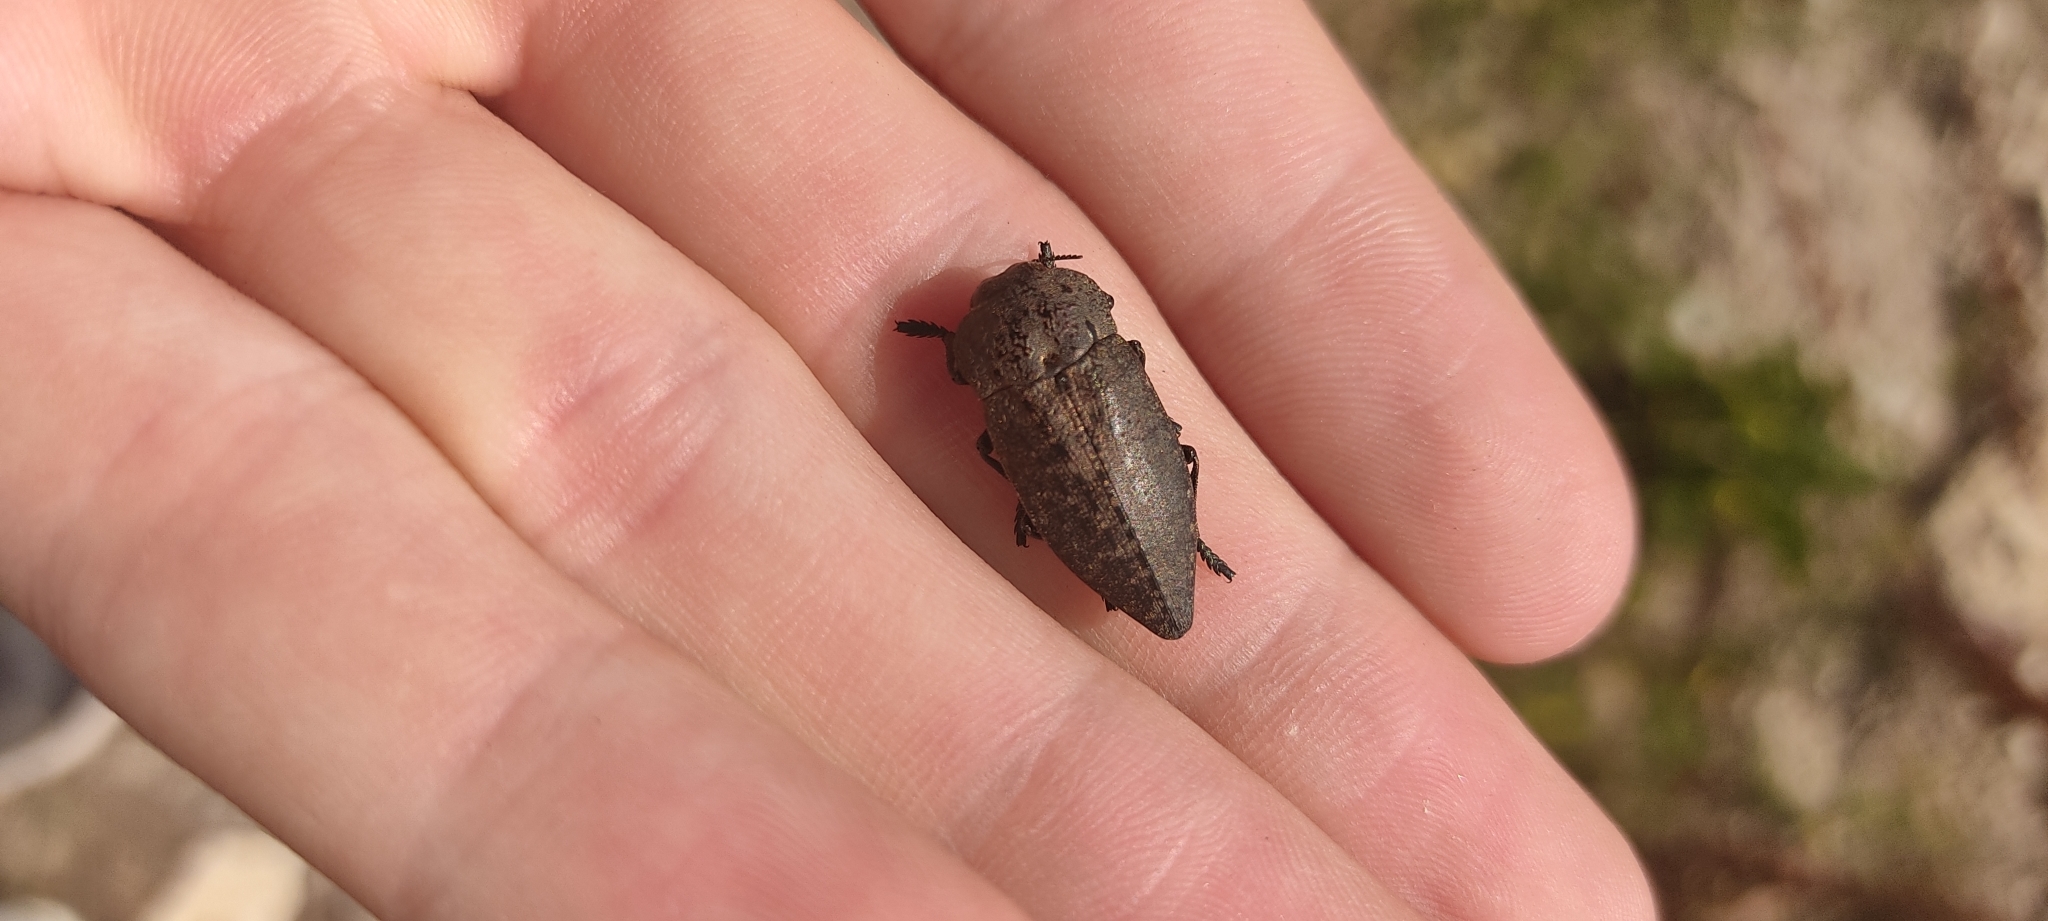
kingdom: Animalia
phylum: Arthropoda
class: Insecta
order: Coleoptera
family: Buprestidae
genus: Capnodis
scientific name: Capnodis tenebricosa
